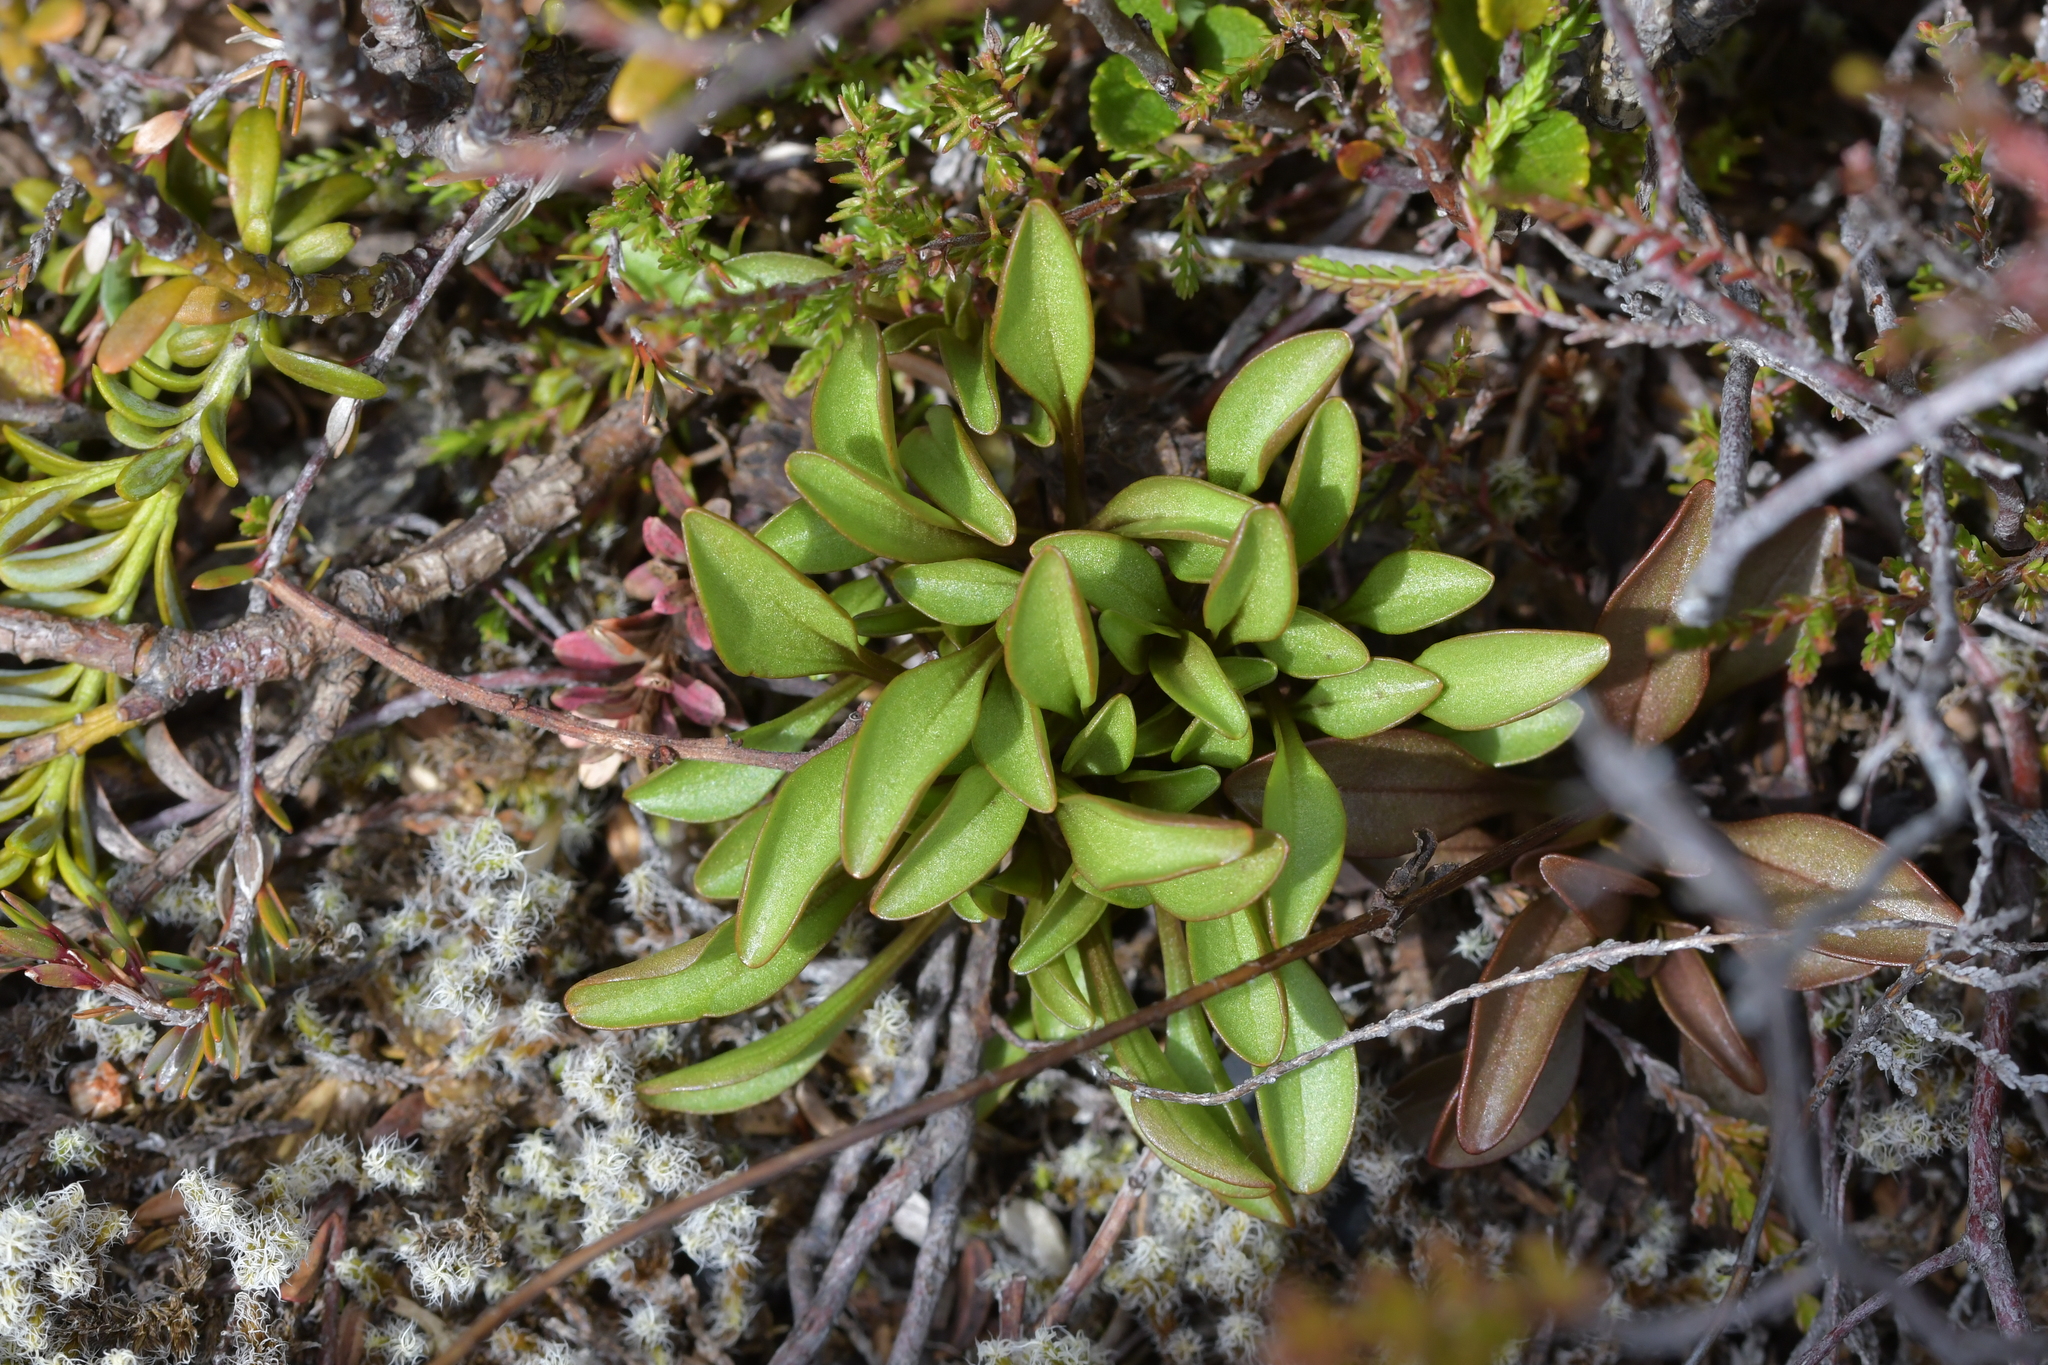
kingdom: Plantae
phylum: Tracheophyta
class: Magnoliopsida
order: Gentianales
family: Gentianaceae
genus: Gentianella
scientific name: Gentianella bellidifolia
